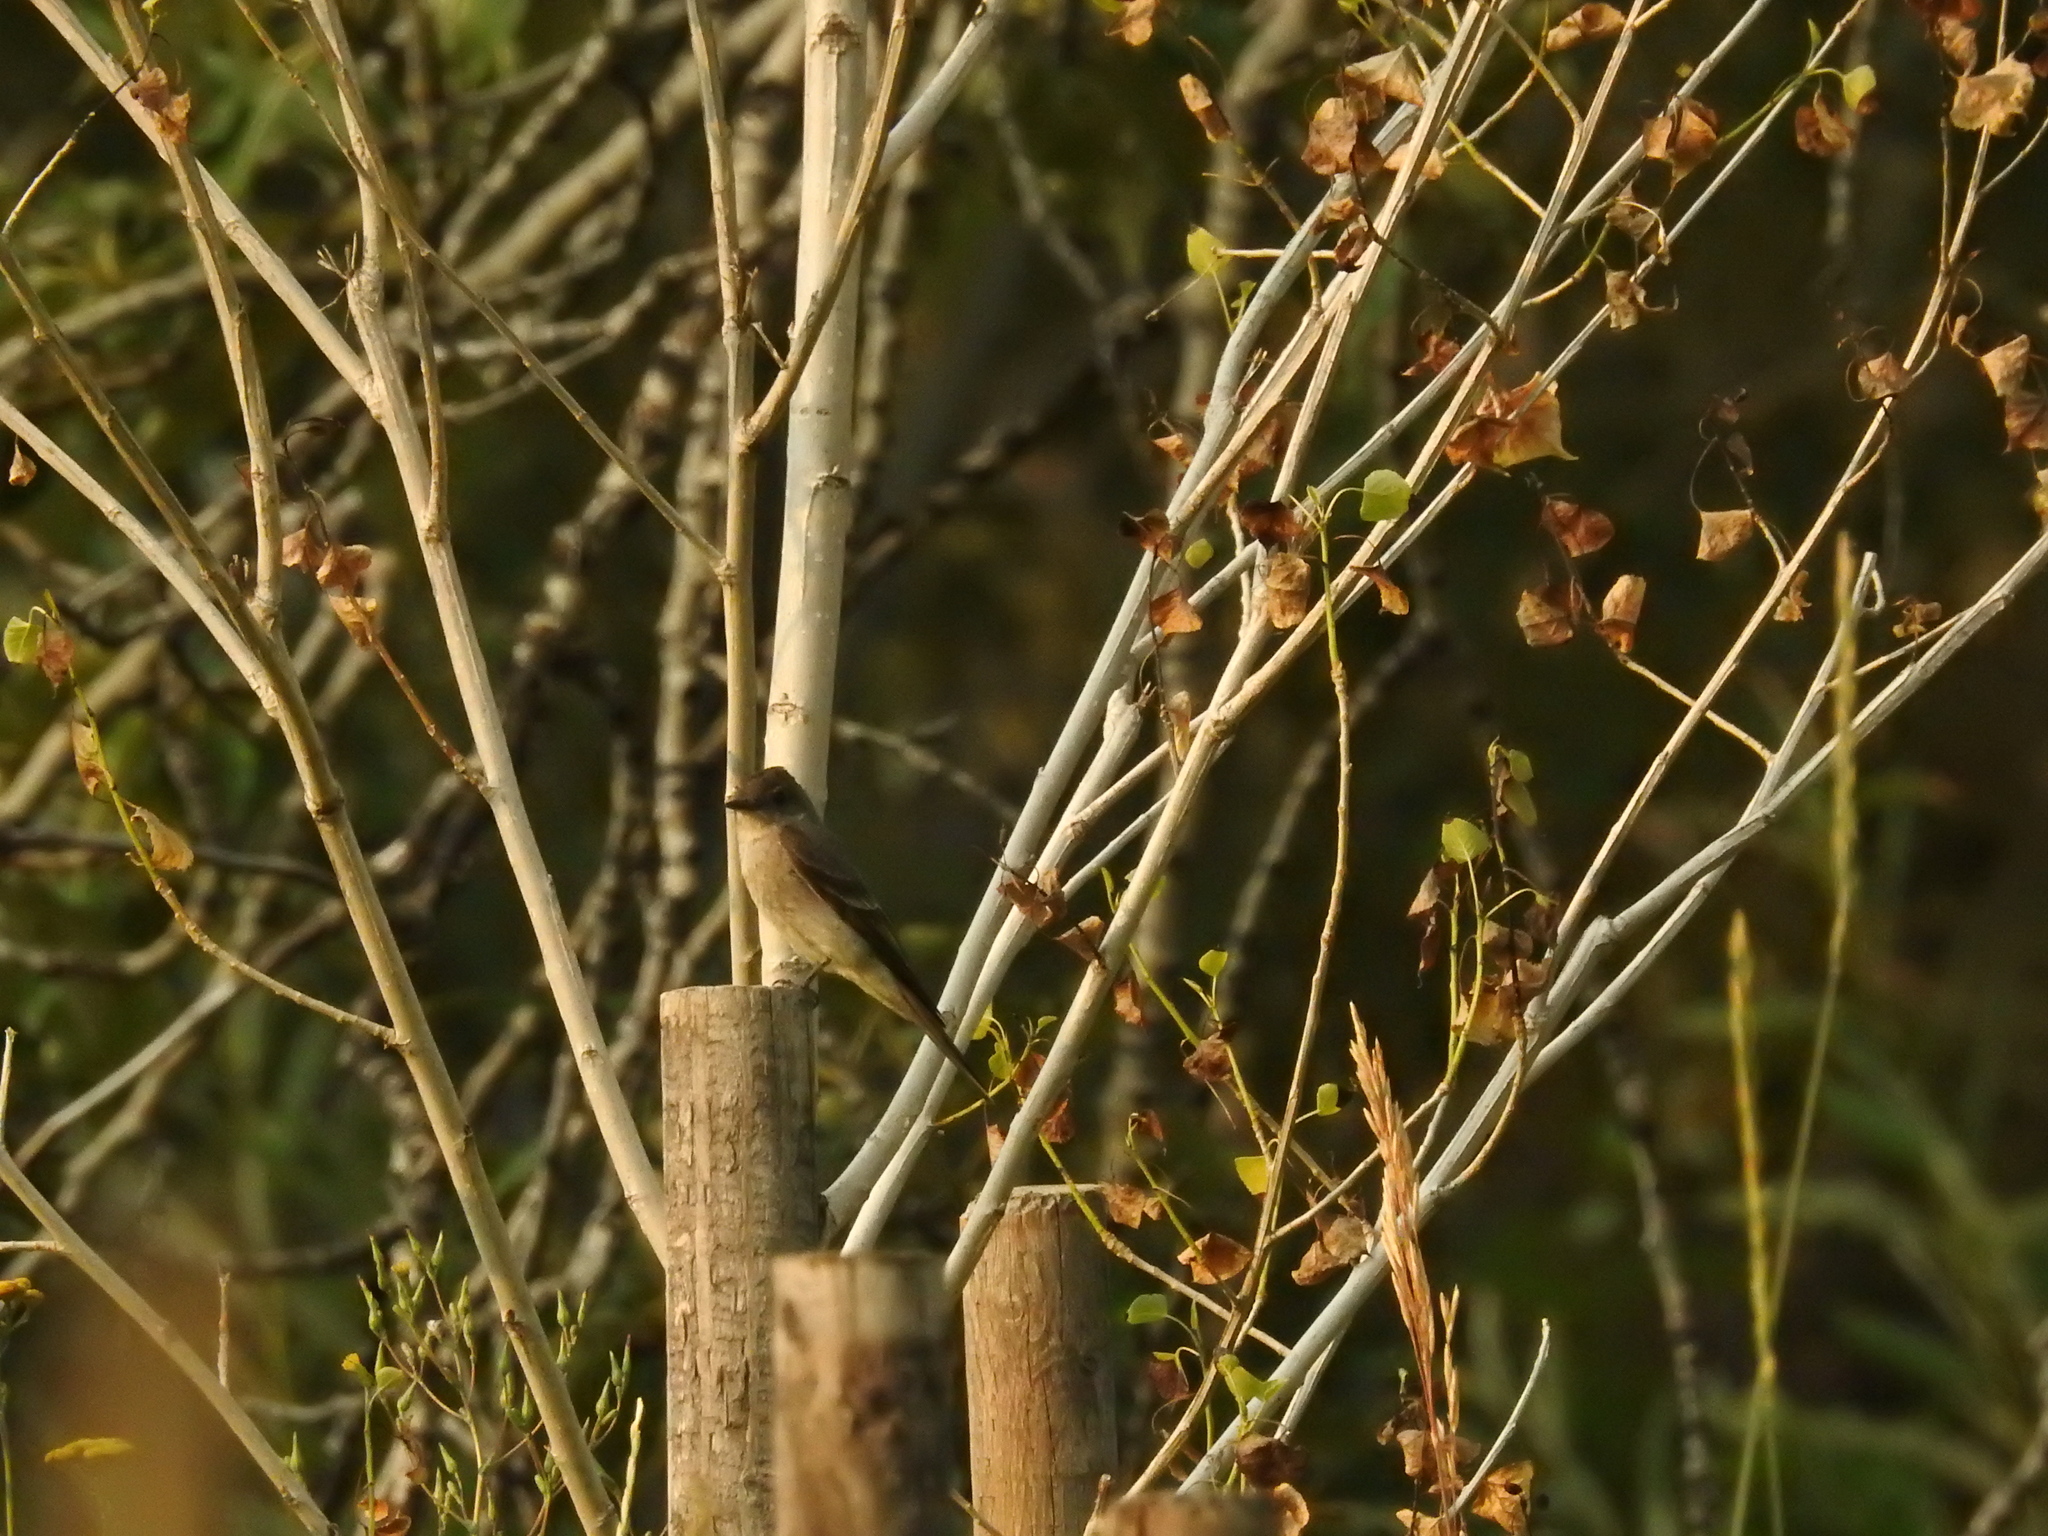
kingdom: Animalia
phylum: Chordata
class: Aves
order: Passeriformes
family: Tyrannidae
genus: Contopus
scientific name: Contopus sordidulus
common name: Western wood-pewee
